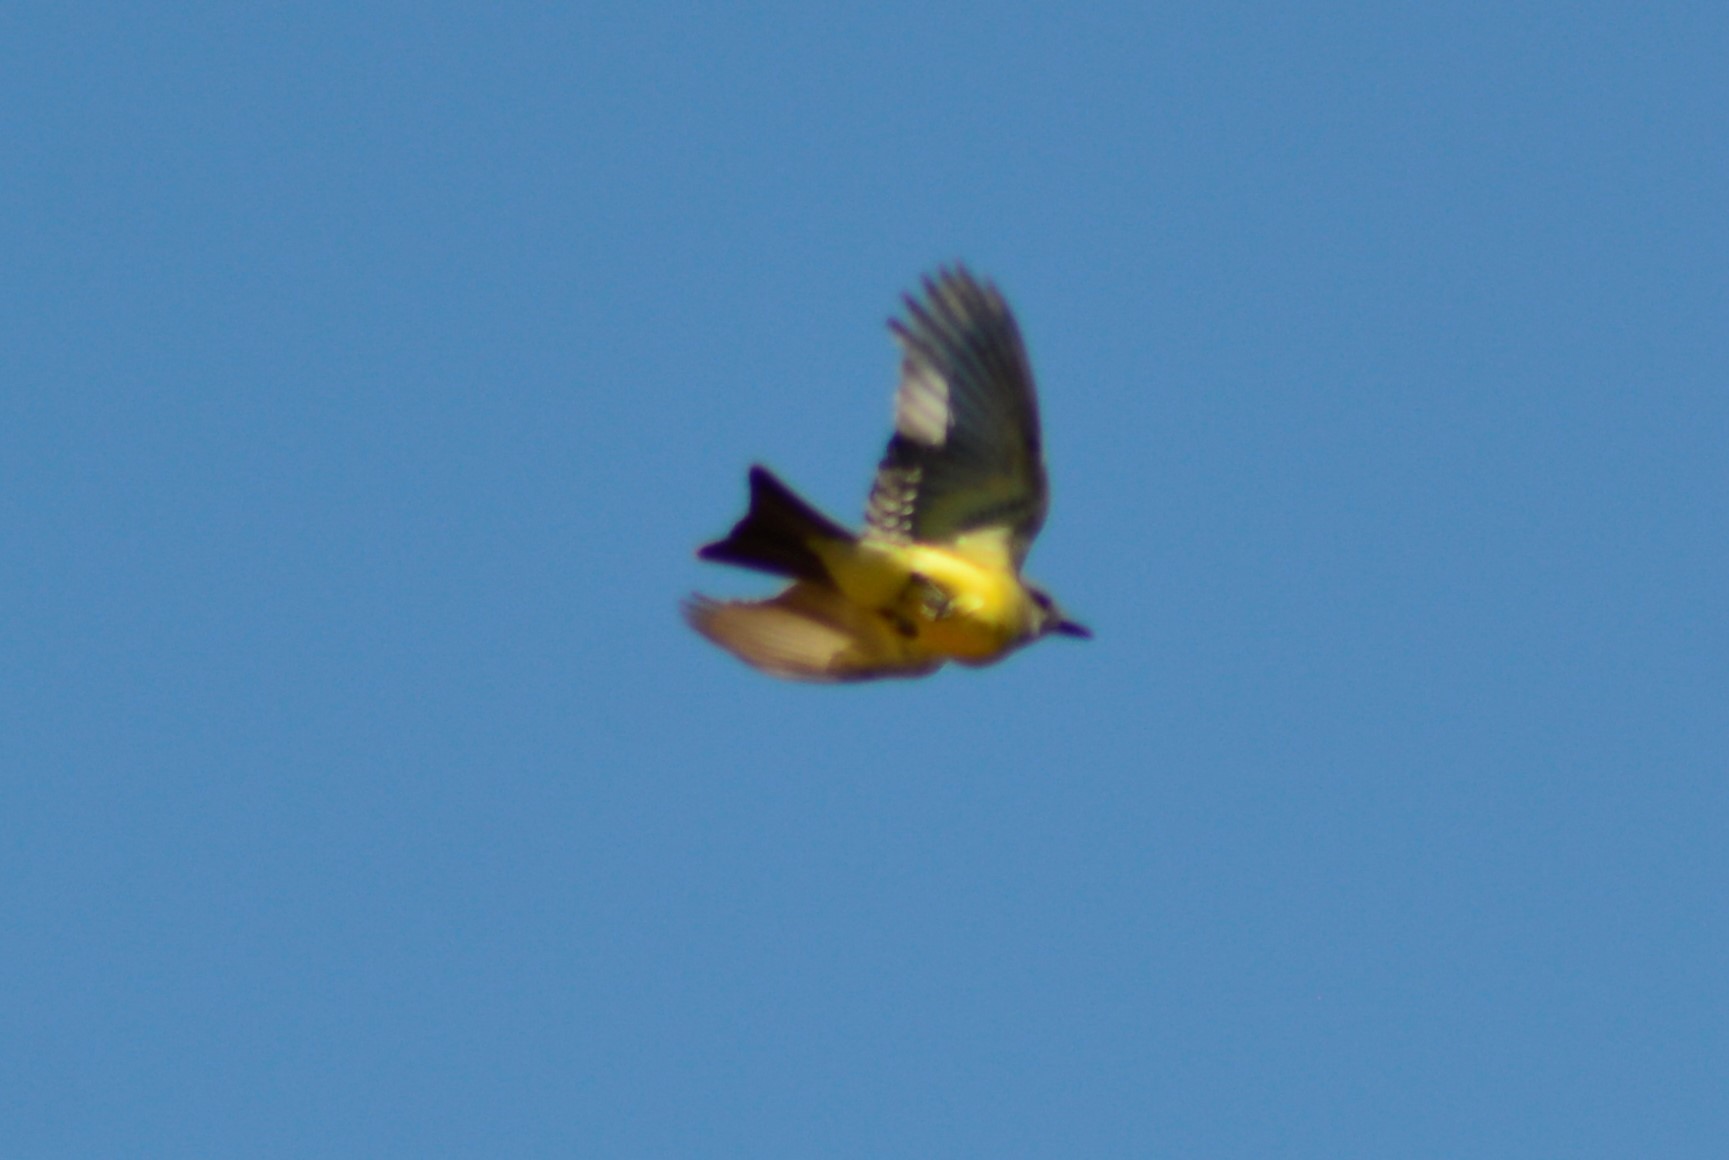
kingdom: Animalia
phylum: Chordata
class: Aves
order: Passeriformes
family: Tyrannidae
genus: Tyrannus
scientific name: Tyrannus melancholicus
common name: Tropical kingbird
